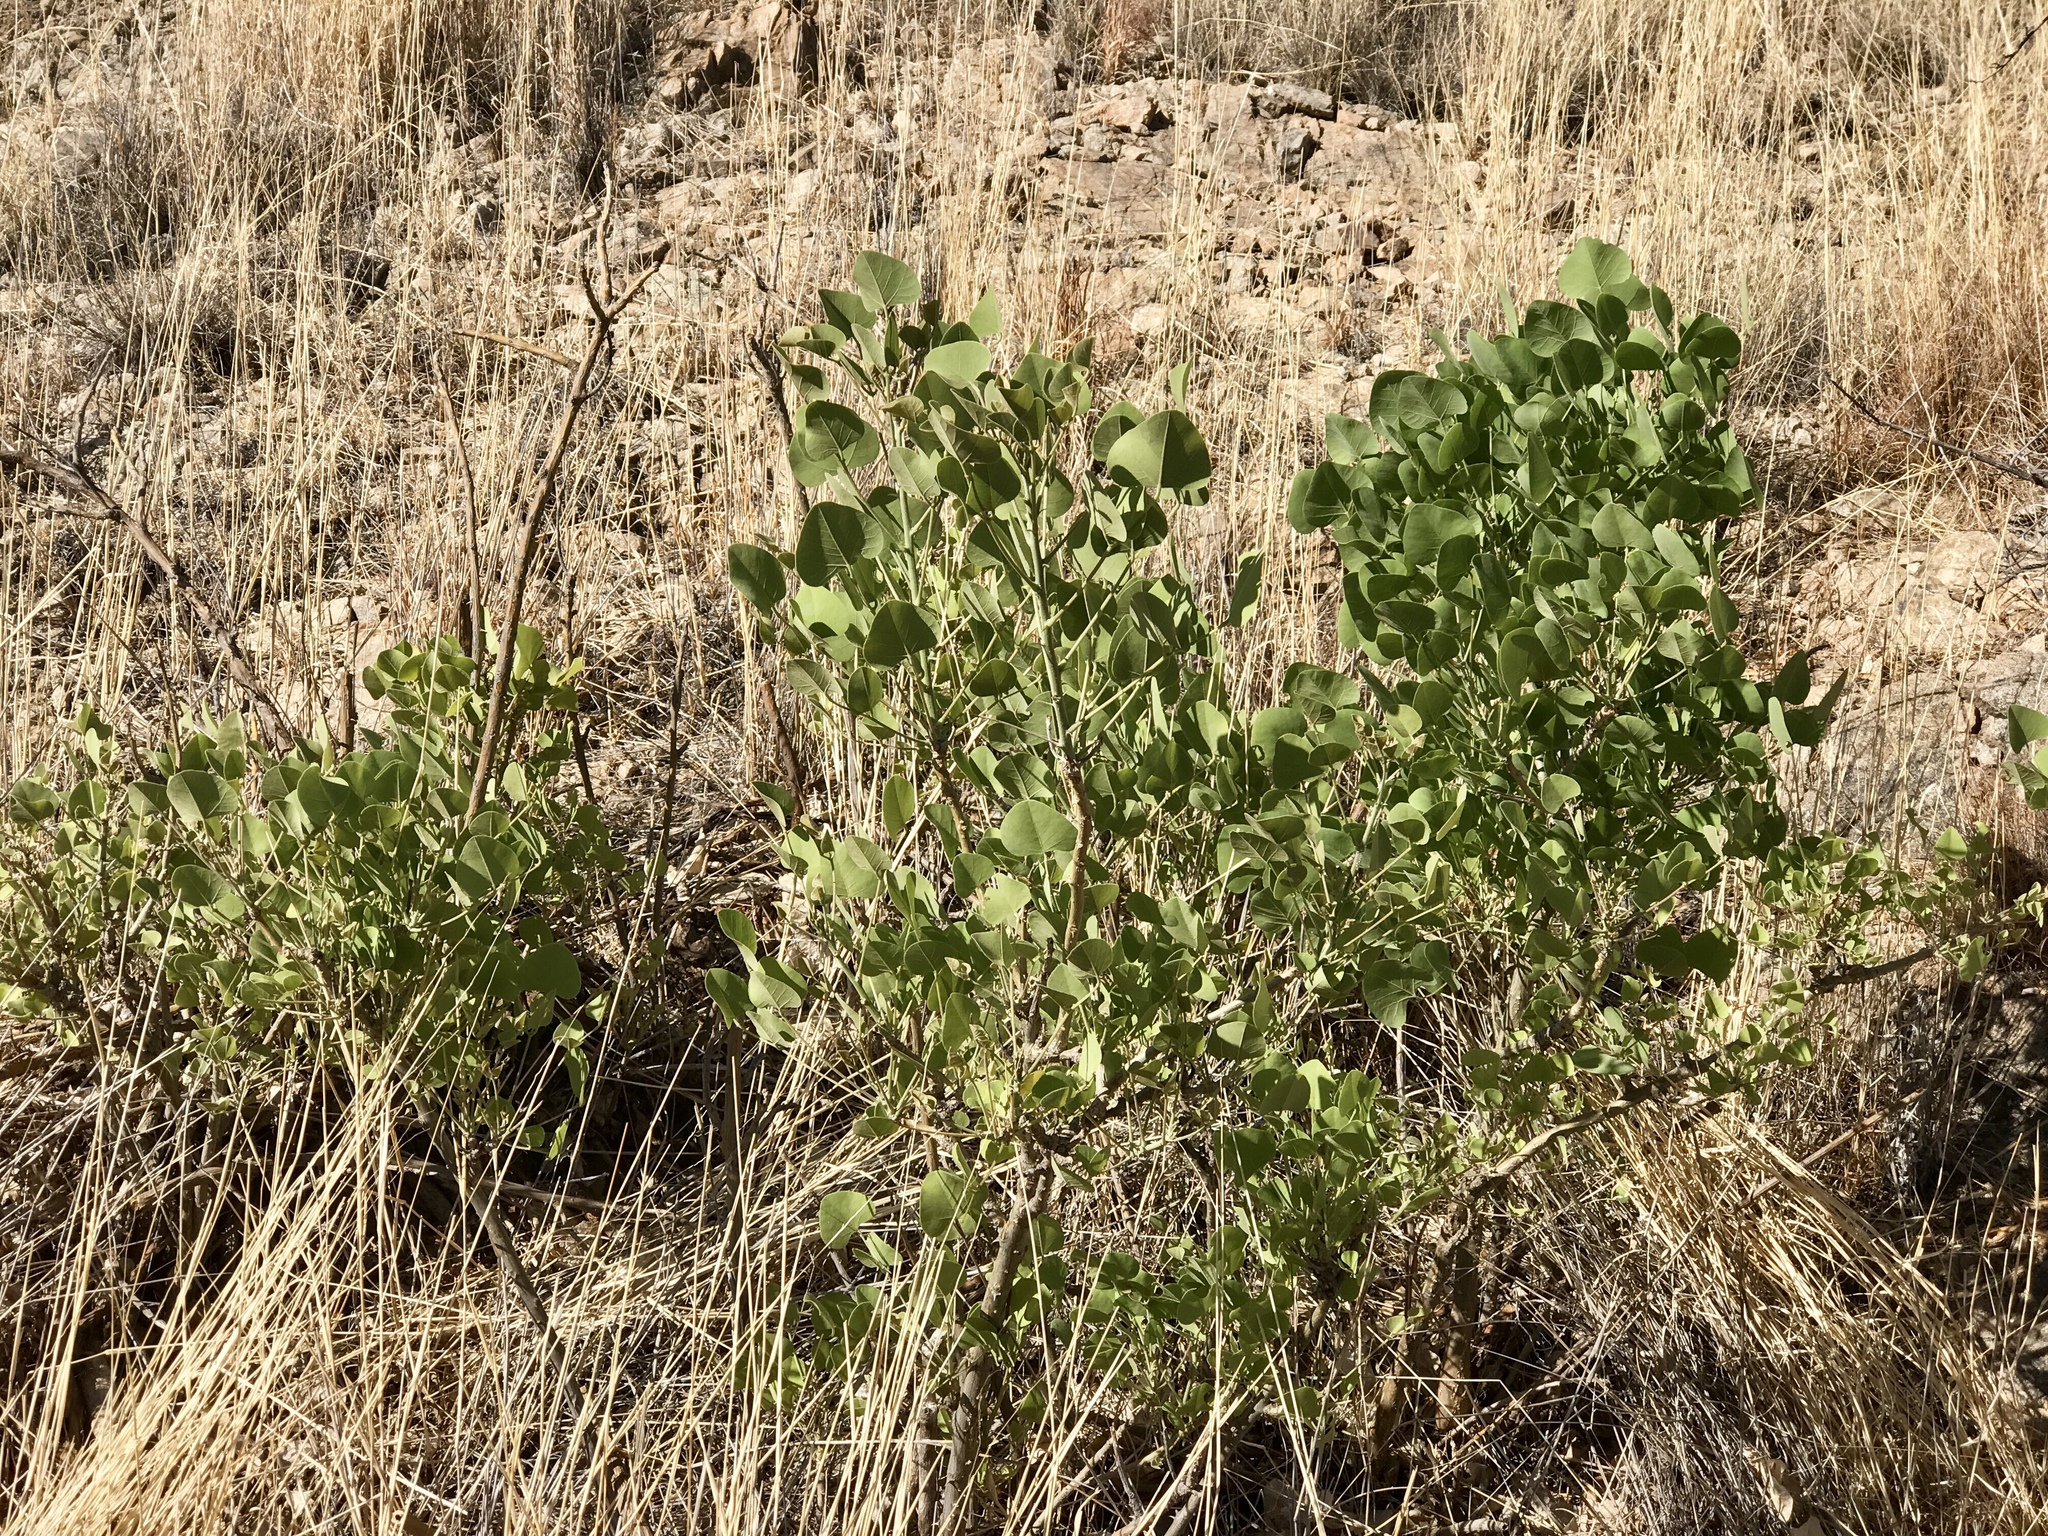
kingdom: Plantae
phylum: Tracheophyta
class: Magnoliopsida
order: Fabales
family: Fabaceae
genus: Erythrina
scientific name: Erythrina flabelliformis
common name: Chilicote
